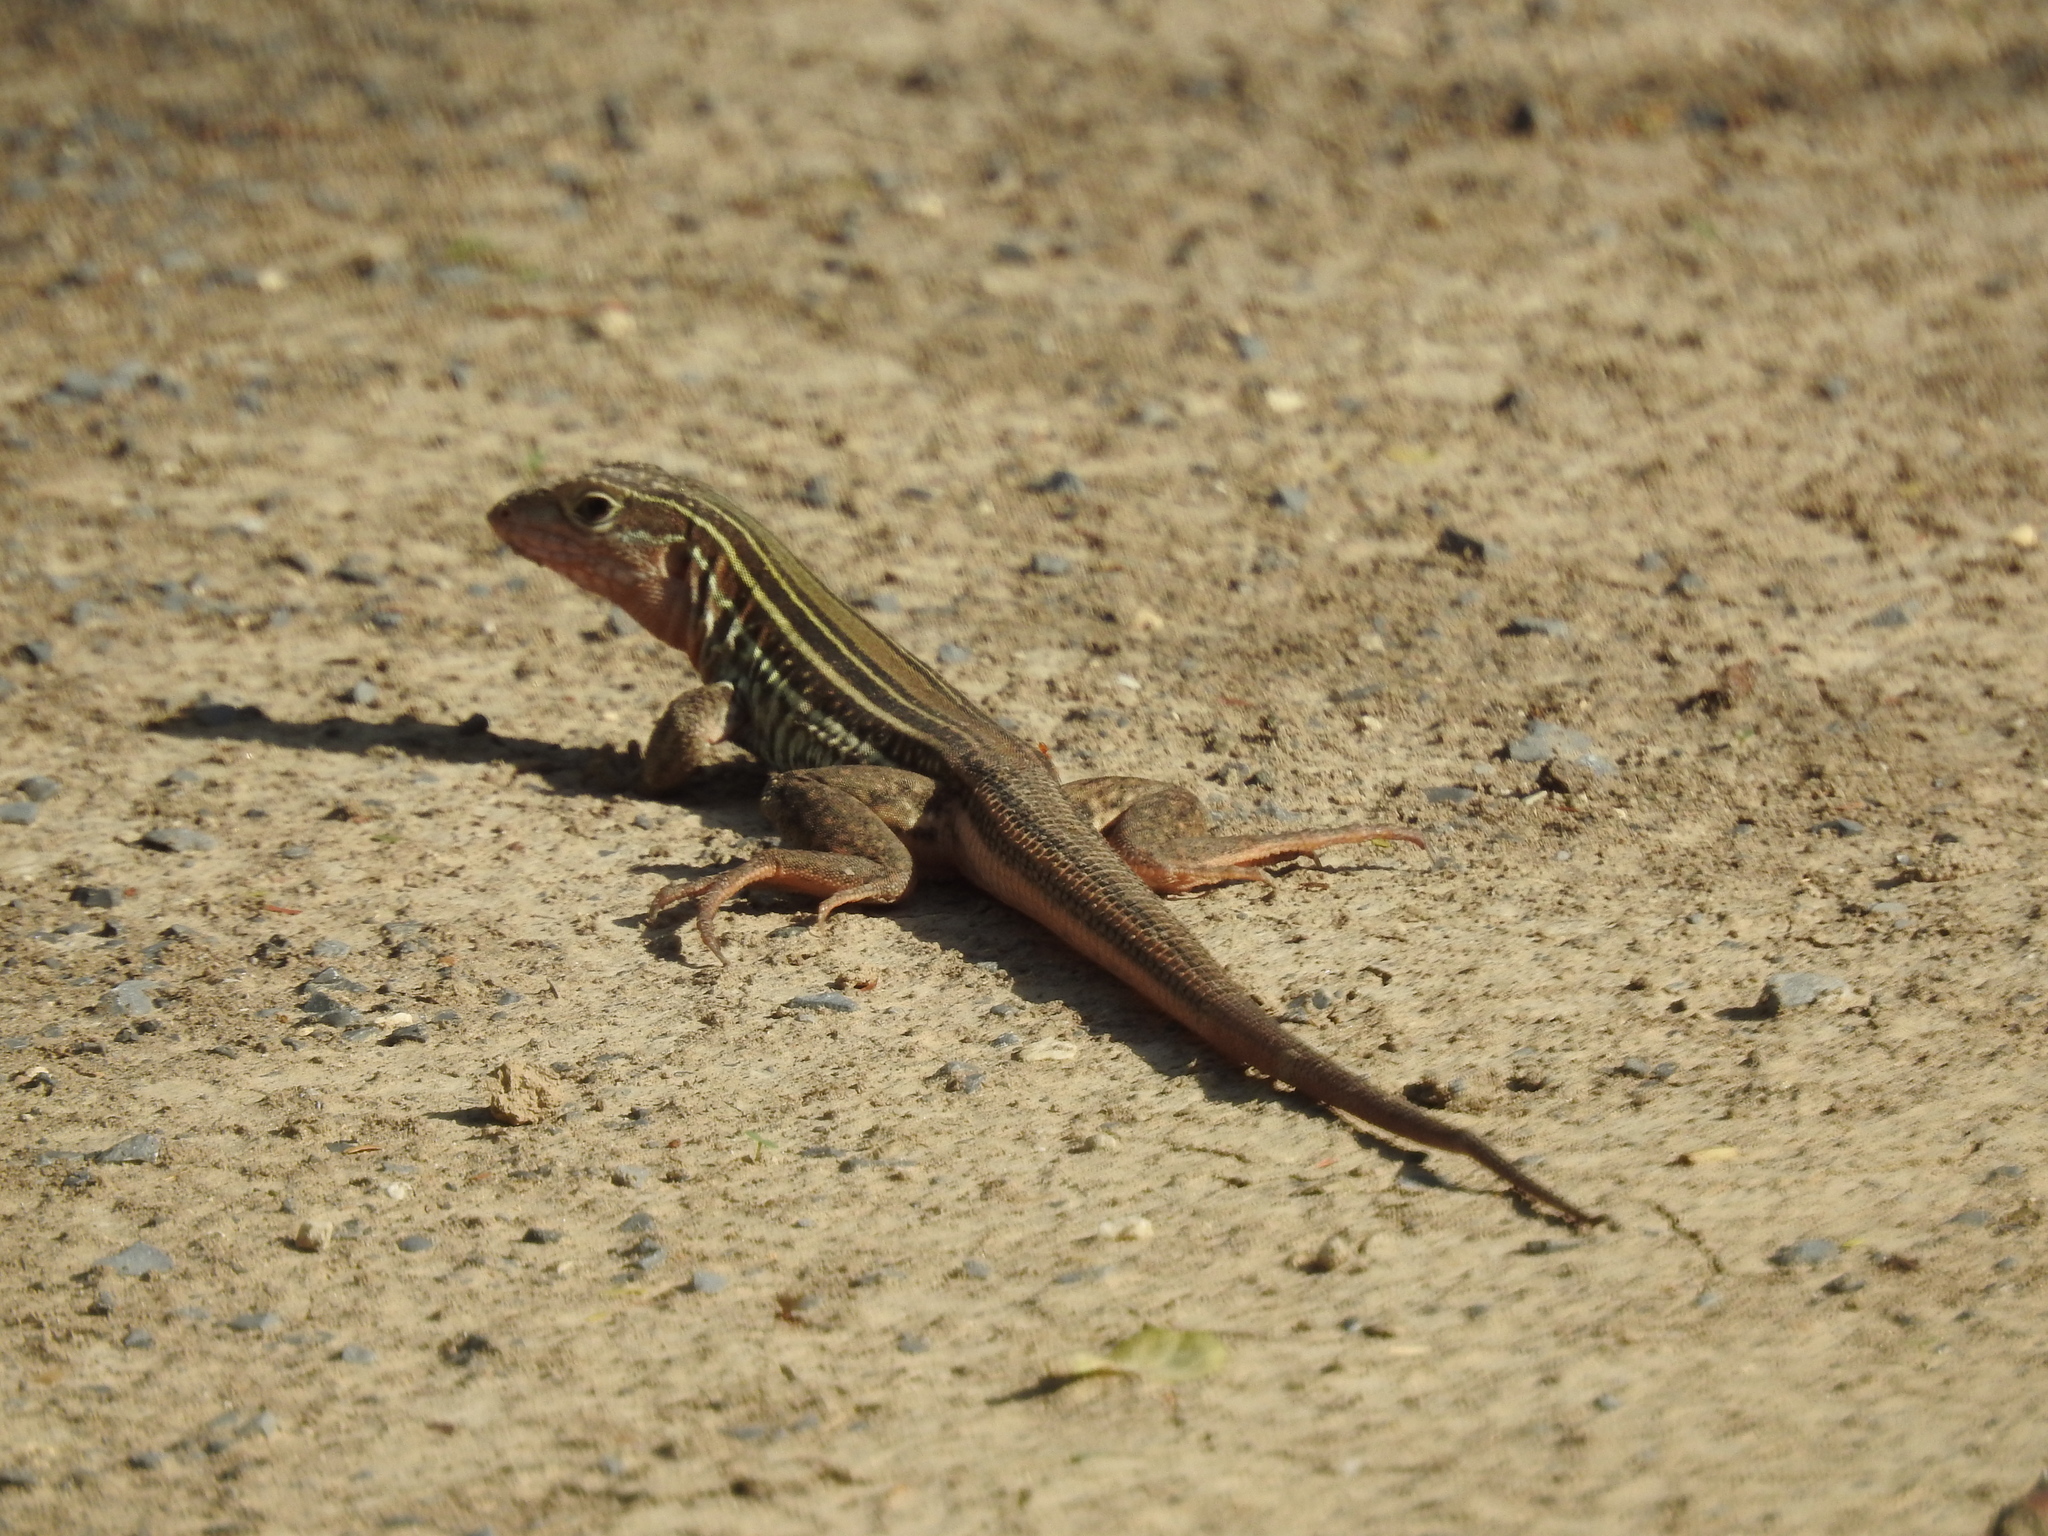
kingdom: Animalia
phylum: Chordata
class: Squamata
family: Teiidae
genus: Aspidoscelis
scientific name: Aspidoscelis gularis
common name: Eastern spotted whiptail
